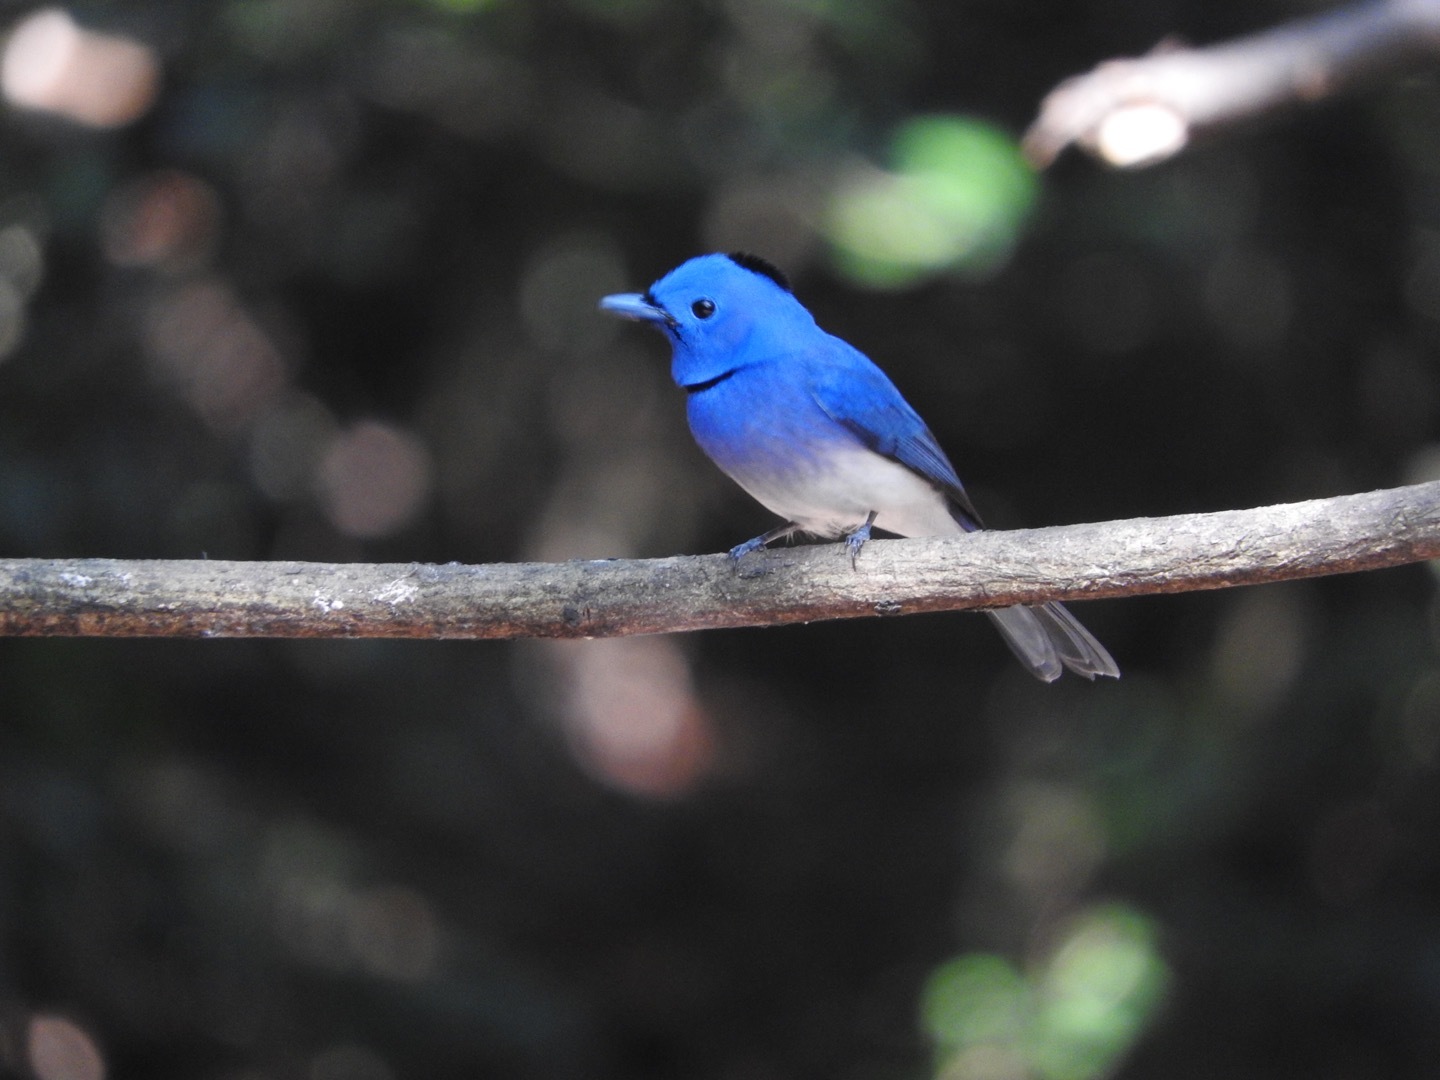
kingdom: Animalia
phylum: Chordata
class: Aves
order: Passeriformes
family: Monarchidae
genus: Hypothymis
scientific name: Hypothymis azurea
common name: Black-naped monarch
